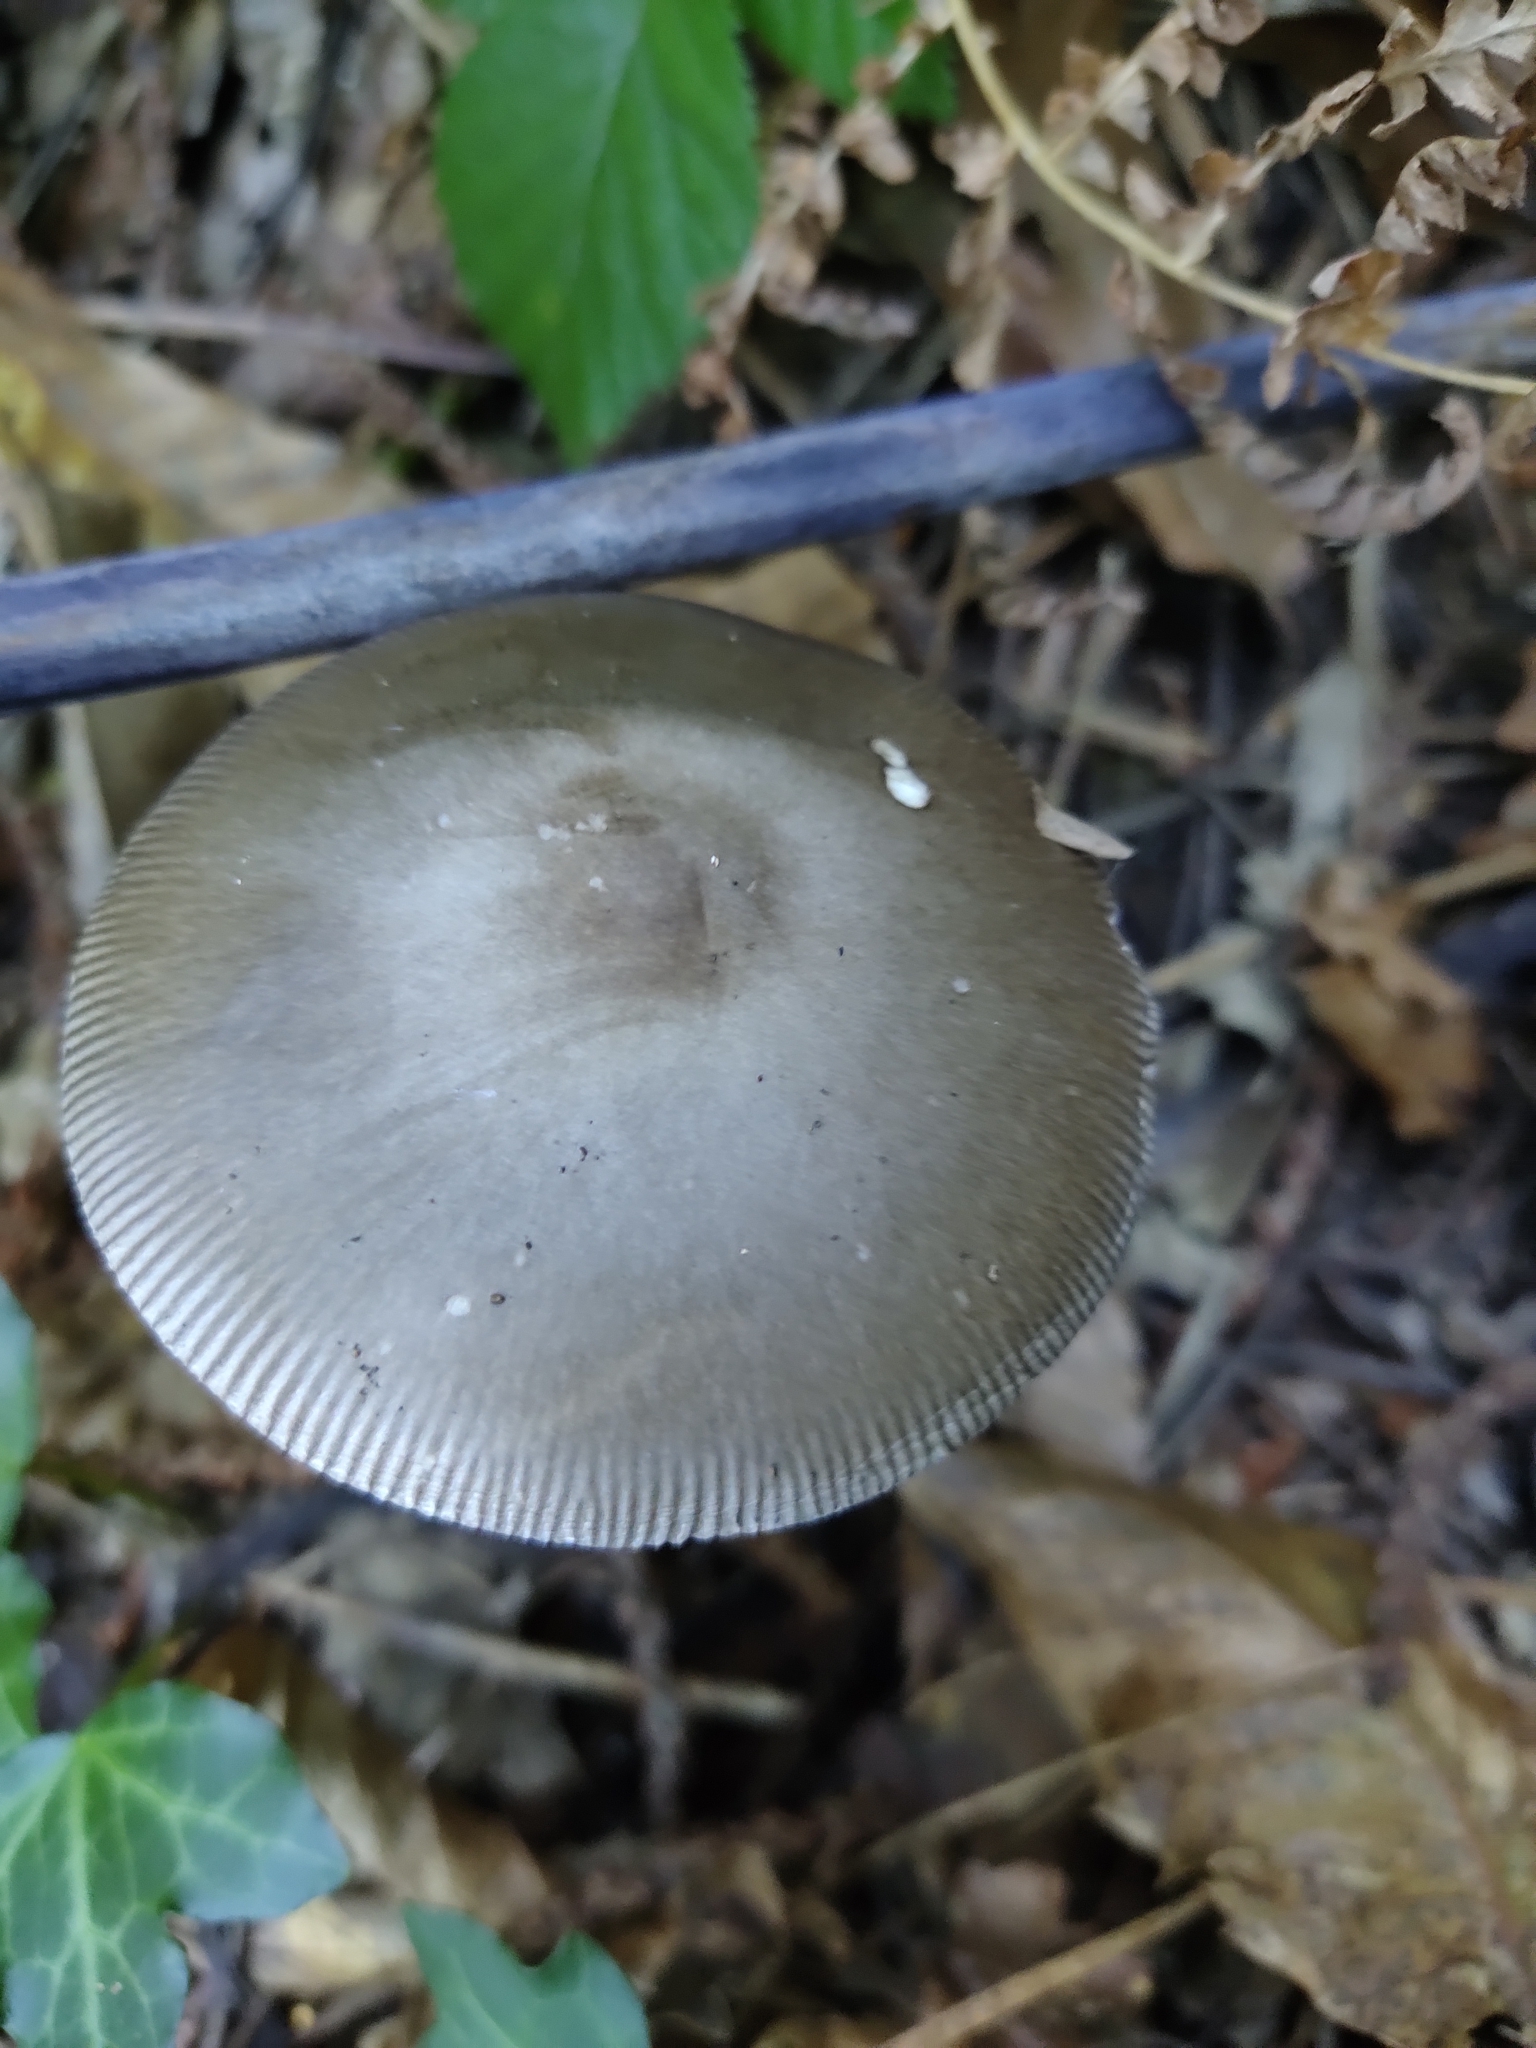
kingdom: Fungi
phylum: Basidiomycota
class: Agaricomycetes
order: Agaricales
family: Amanitaceae
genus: Amanita
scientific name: Amanita vaginata
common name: Grisette
